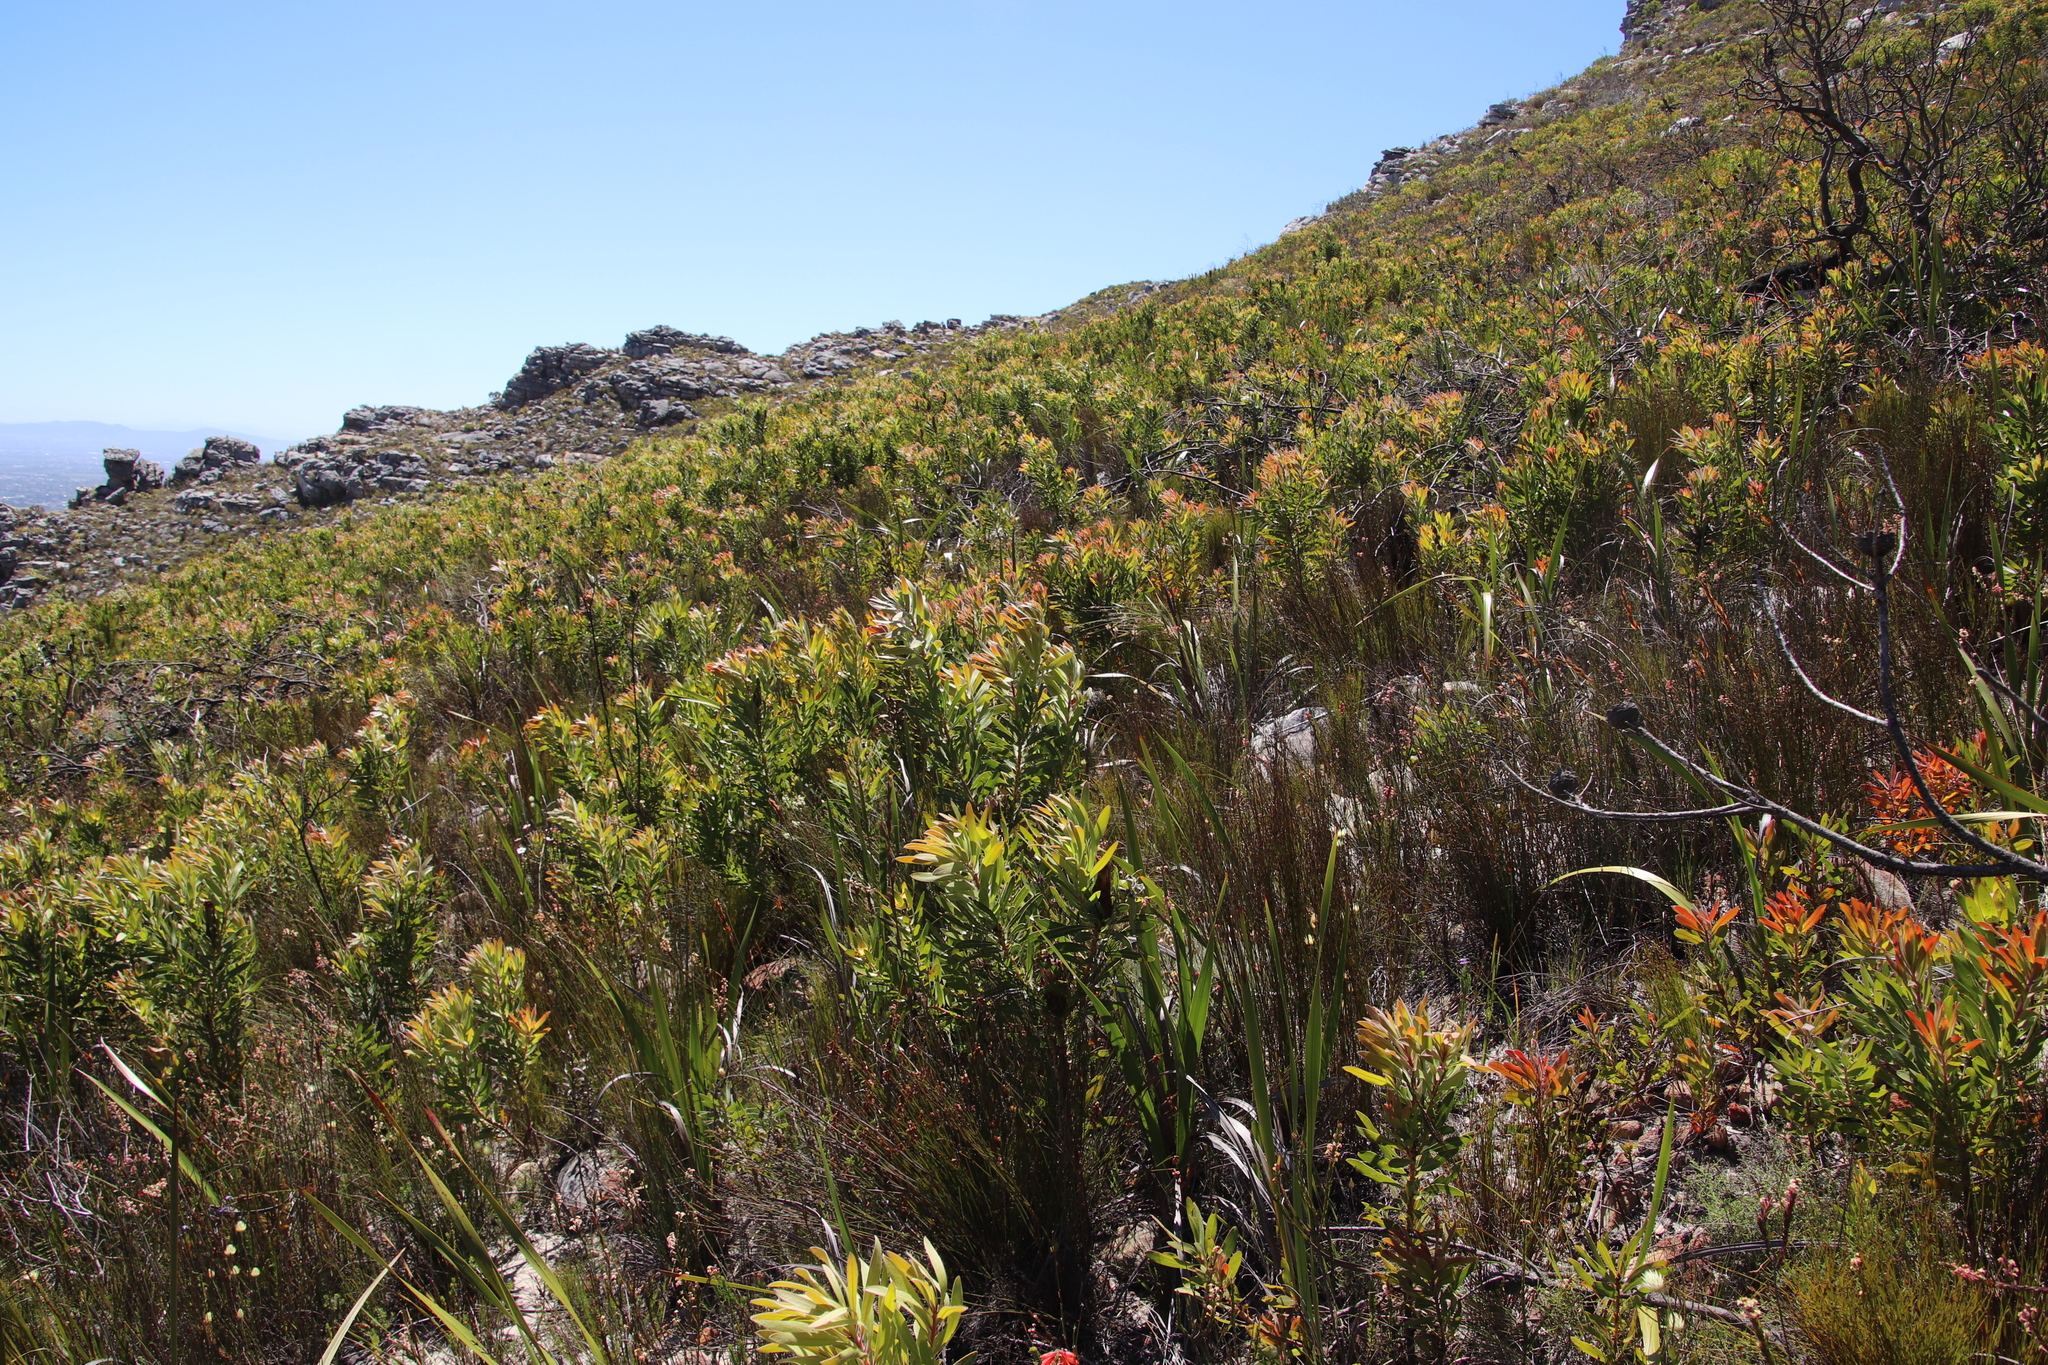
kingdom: Plantae
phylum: Tracheophyta
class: Magnoliopsida
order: Proteales
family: Proteaceae
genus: Protea
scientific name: Protea lepidocarpodendron
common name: Black-bearded protea
